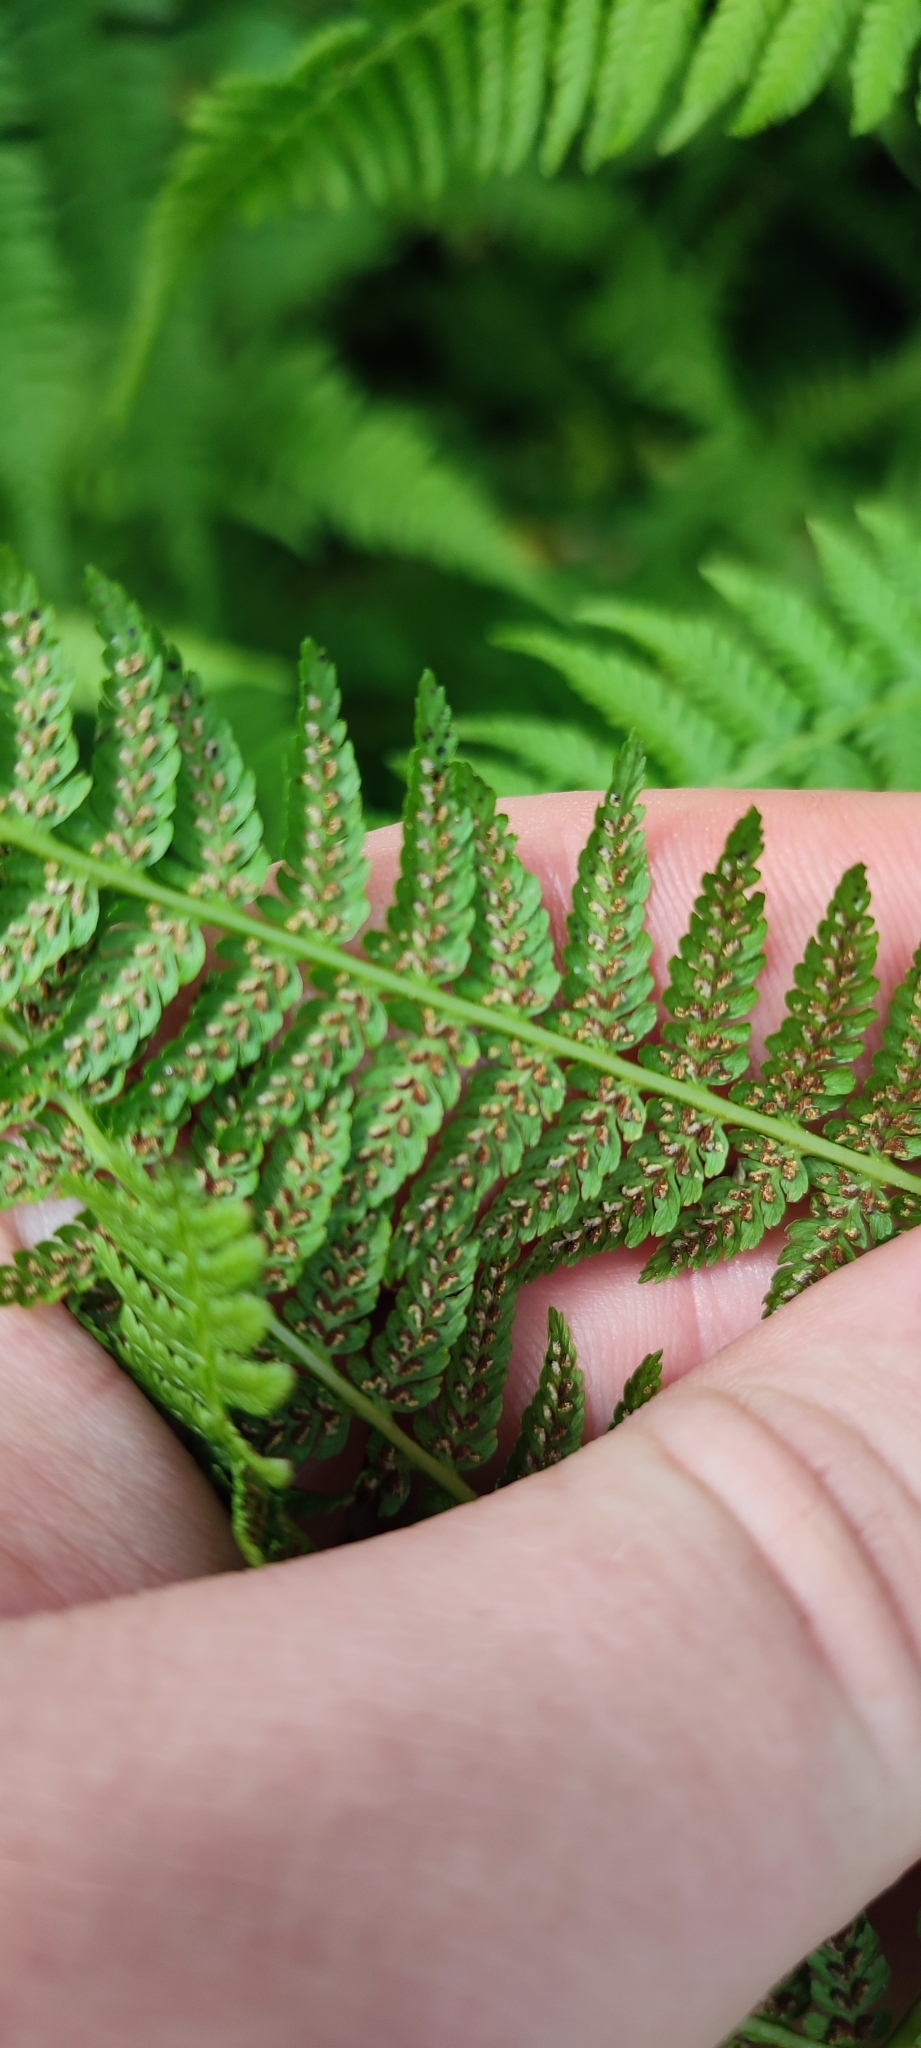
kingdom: Plantae
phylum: Tracheophyta
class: Polypodiopsida
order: Polypodiales
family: Athyriaceae
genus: Athyrium
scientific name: Athyrium filix-femina
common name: Lady fern
